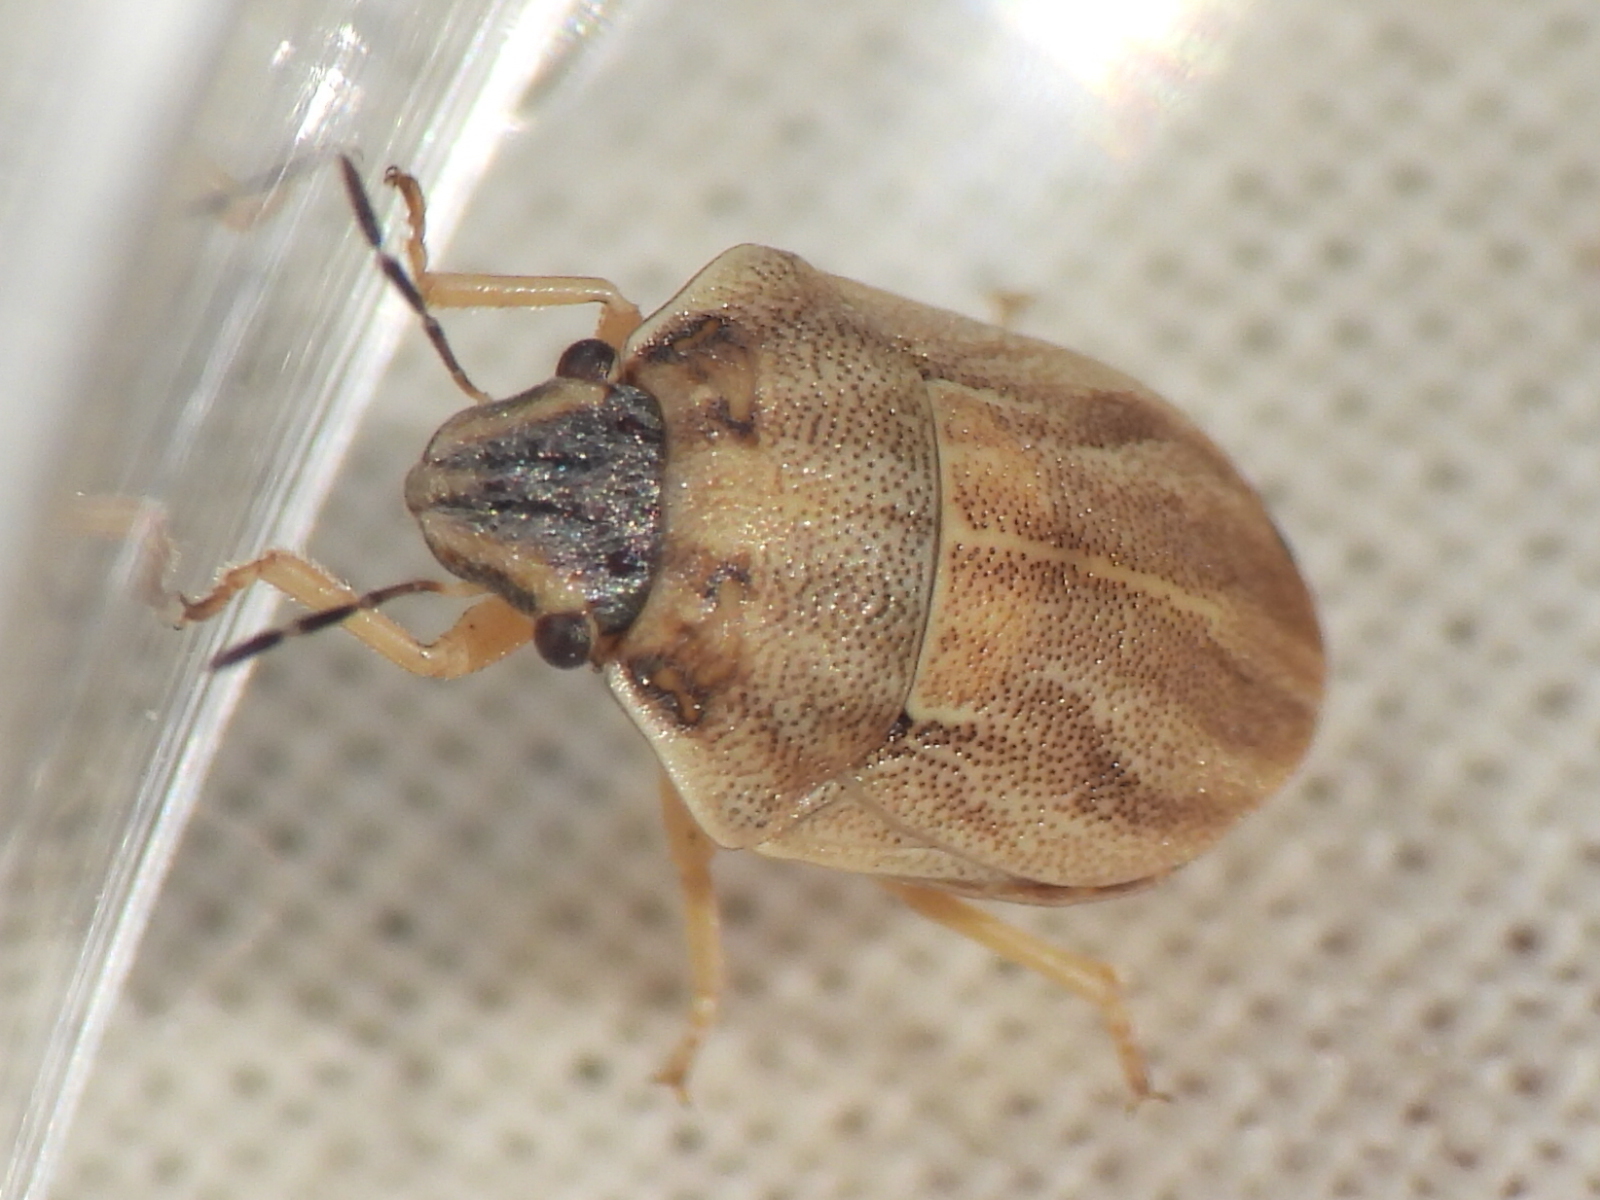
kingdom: Animalia
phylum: Arthropoda
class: Insecta
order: Hemiptera
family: Scutelleridae
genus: Sphyrocoris
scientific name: Sphyrocoris obliquus
